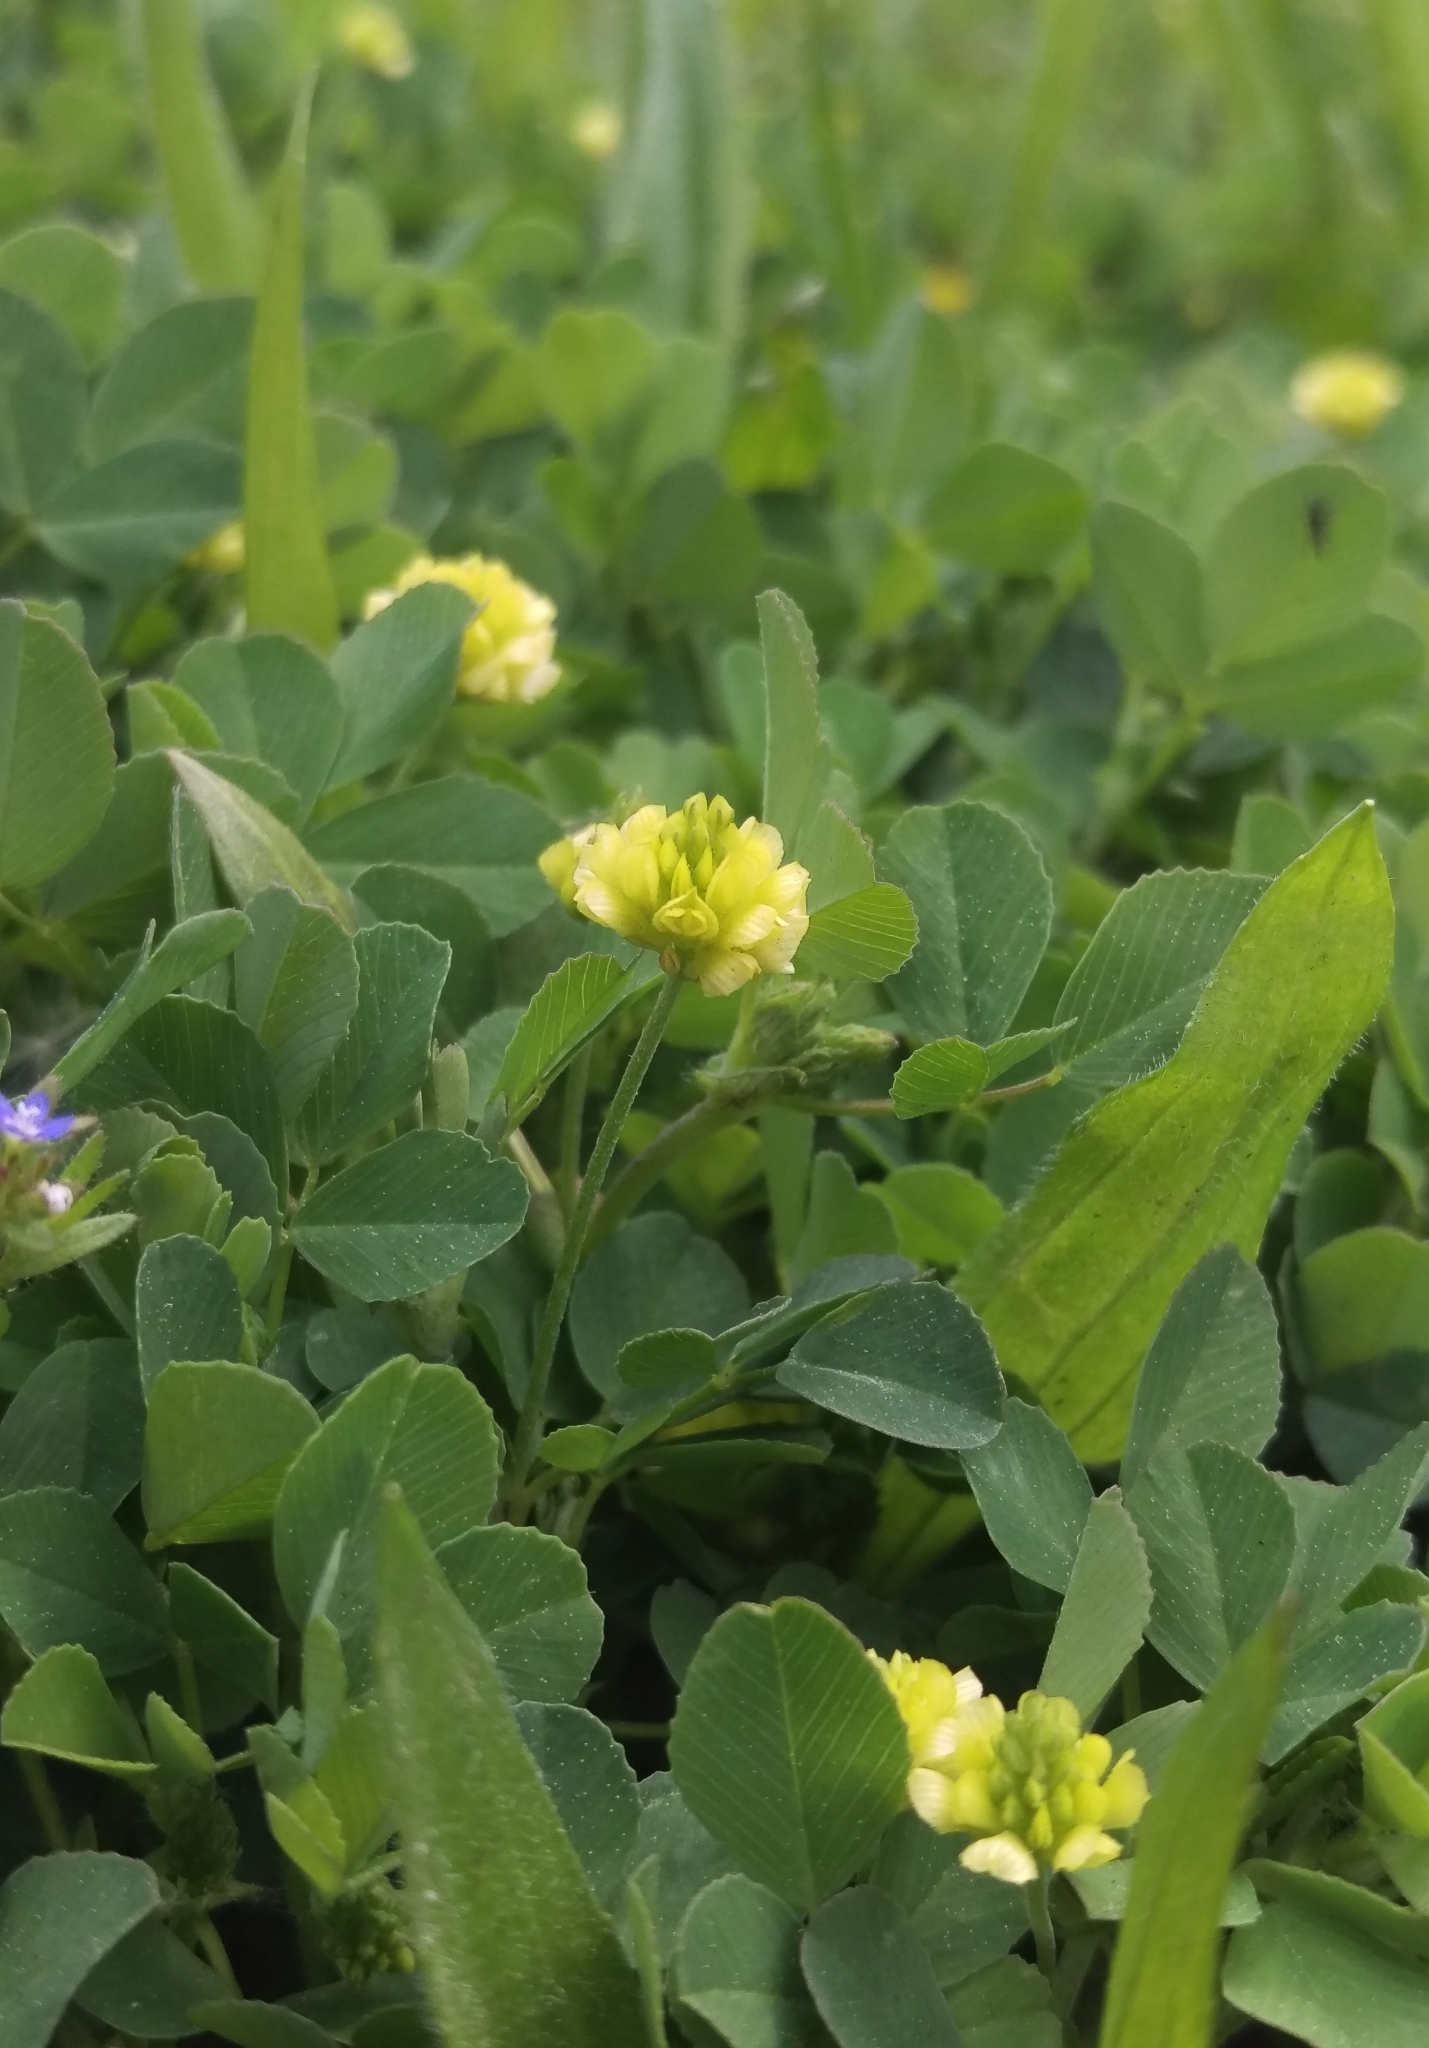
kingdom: Plantae
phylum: Tracheophyta
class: Magnoliopsida
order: Fabales
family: Fabaceae
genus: Trifolium
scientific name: Trifolium campestre
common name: Field clover
